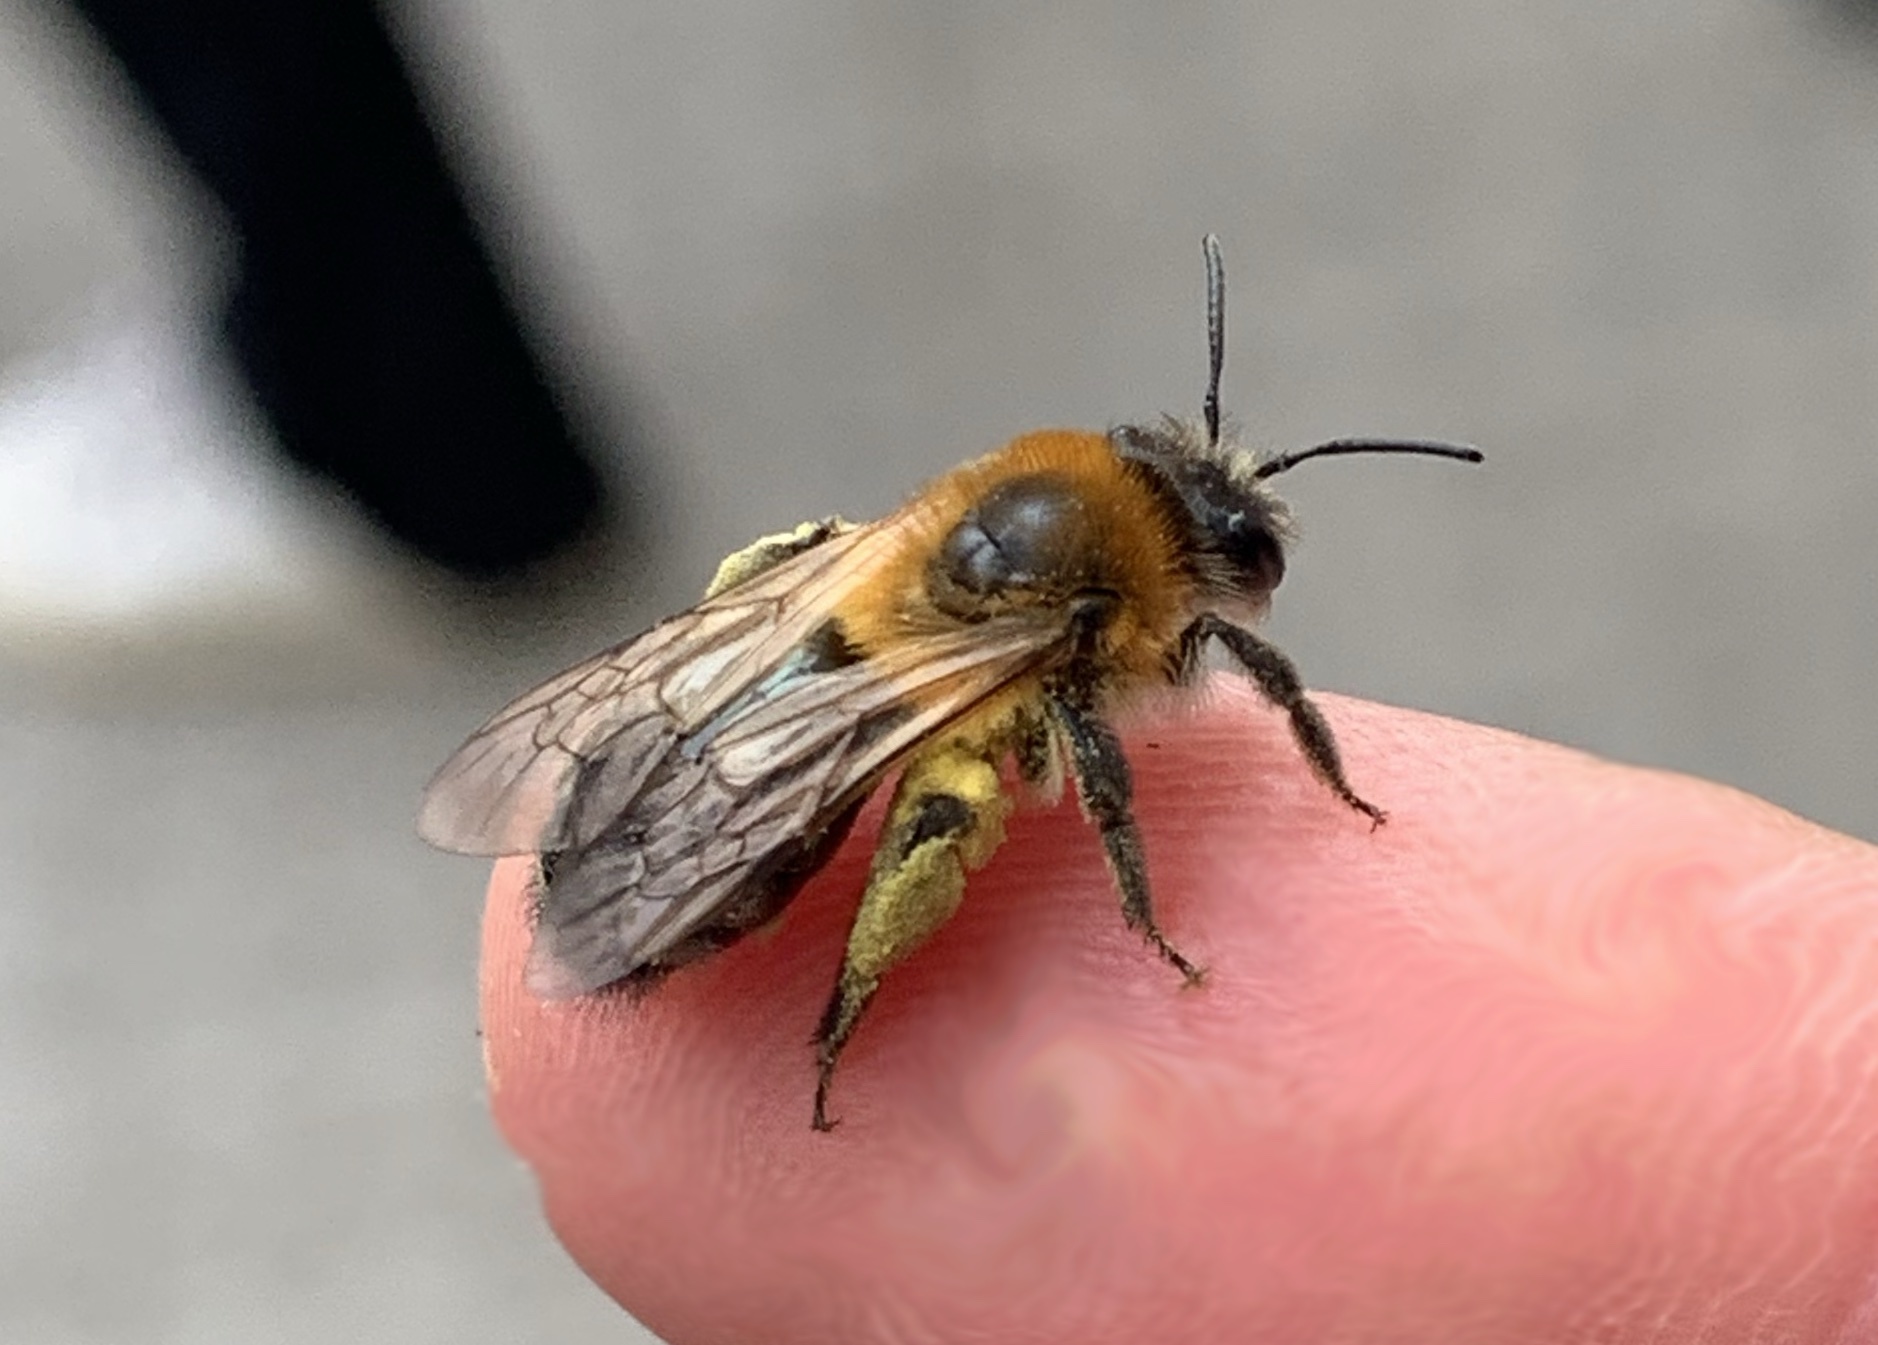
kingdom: Animalia
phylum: Arthropoda
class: Insecta
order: Hymenoptera
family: Andrenidae
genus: Andrena
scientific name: Andrena nitida
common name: Grey-patched mining bee
